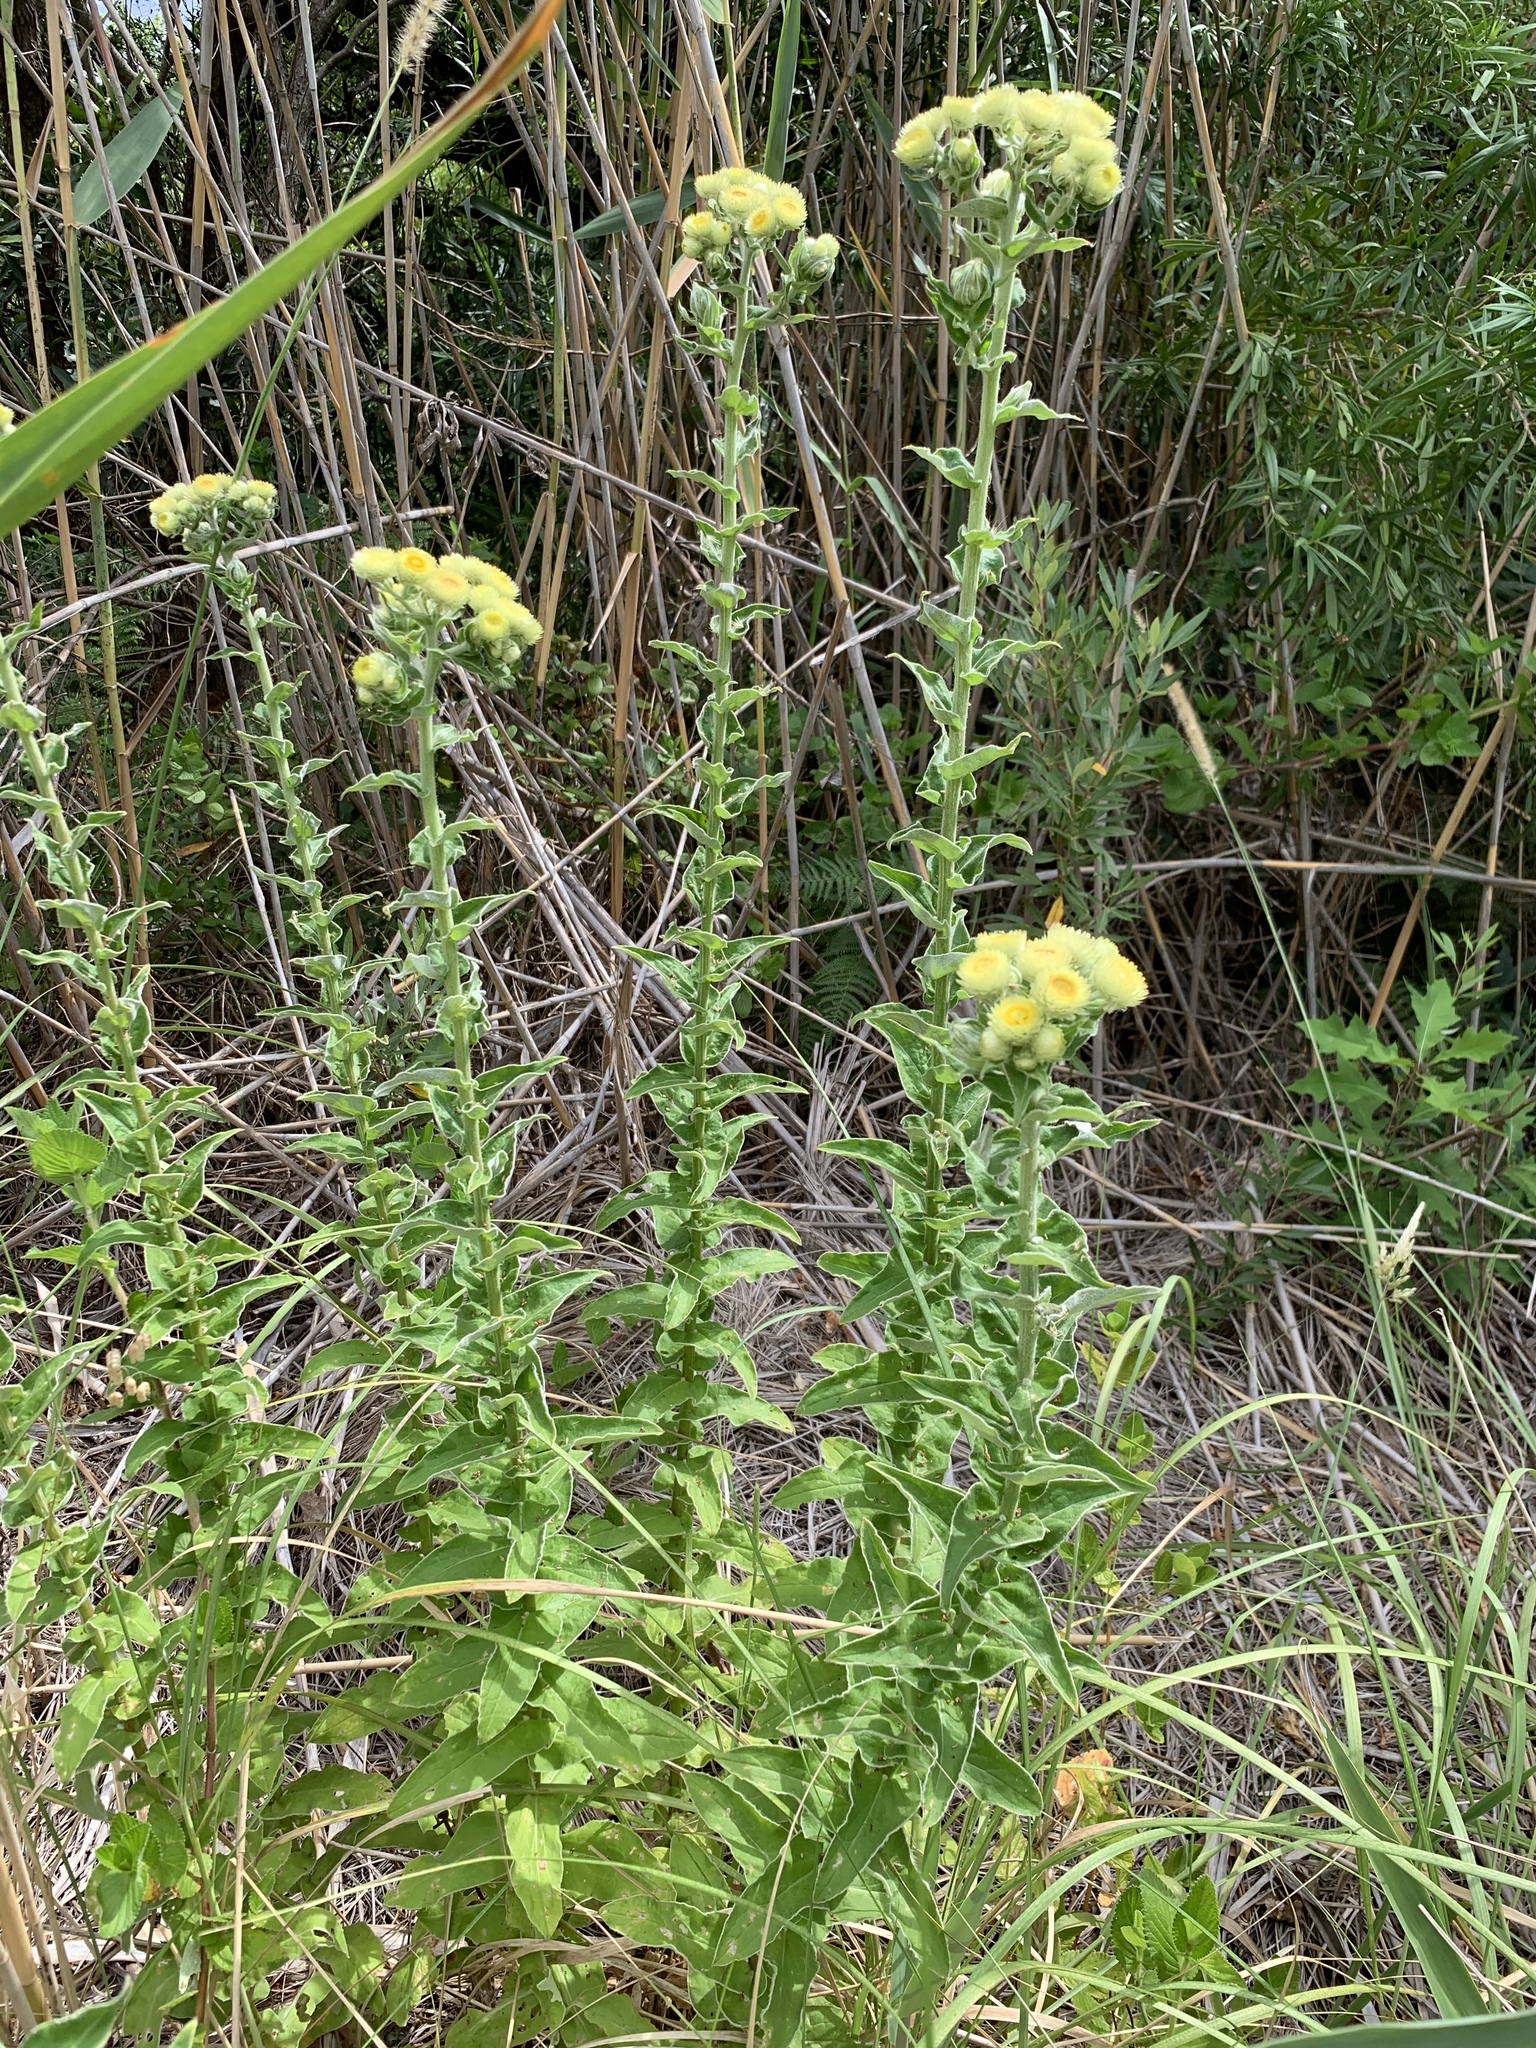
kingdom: Plantae
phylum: Tracheophyta
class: Magnoliopsida
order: Asterales
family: Asteraceae
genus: Helichrysum
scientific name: Helichrysum foetidum
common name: Stinking everlasting
